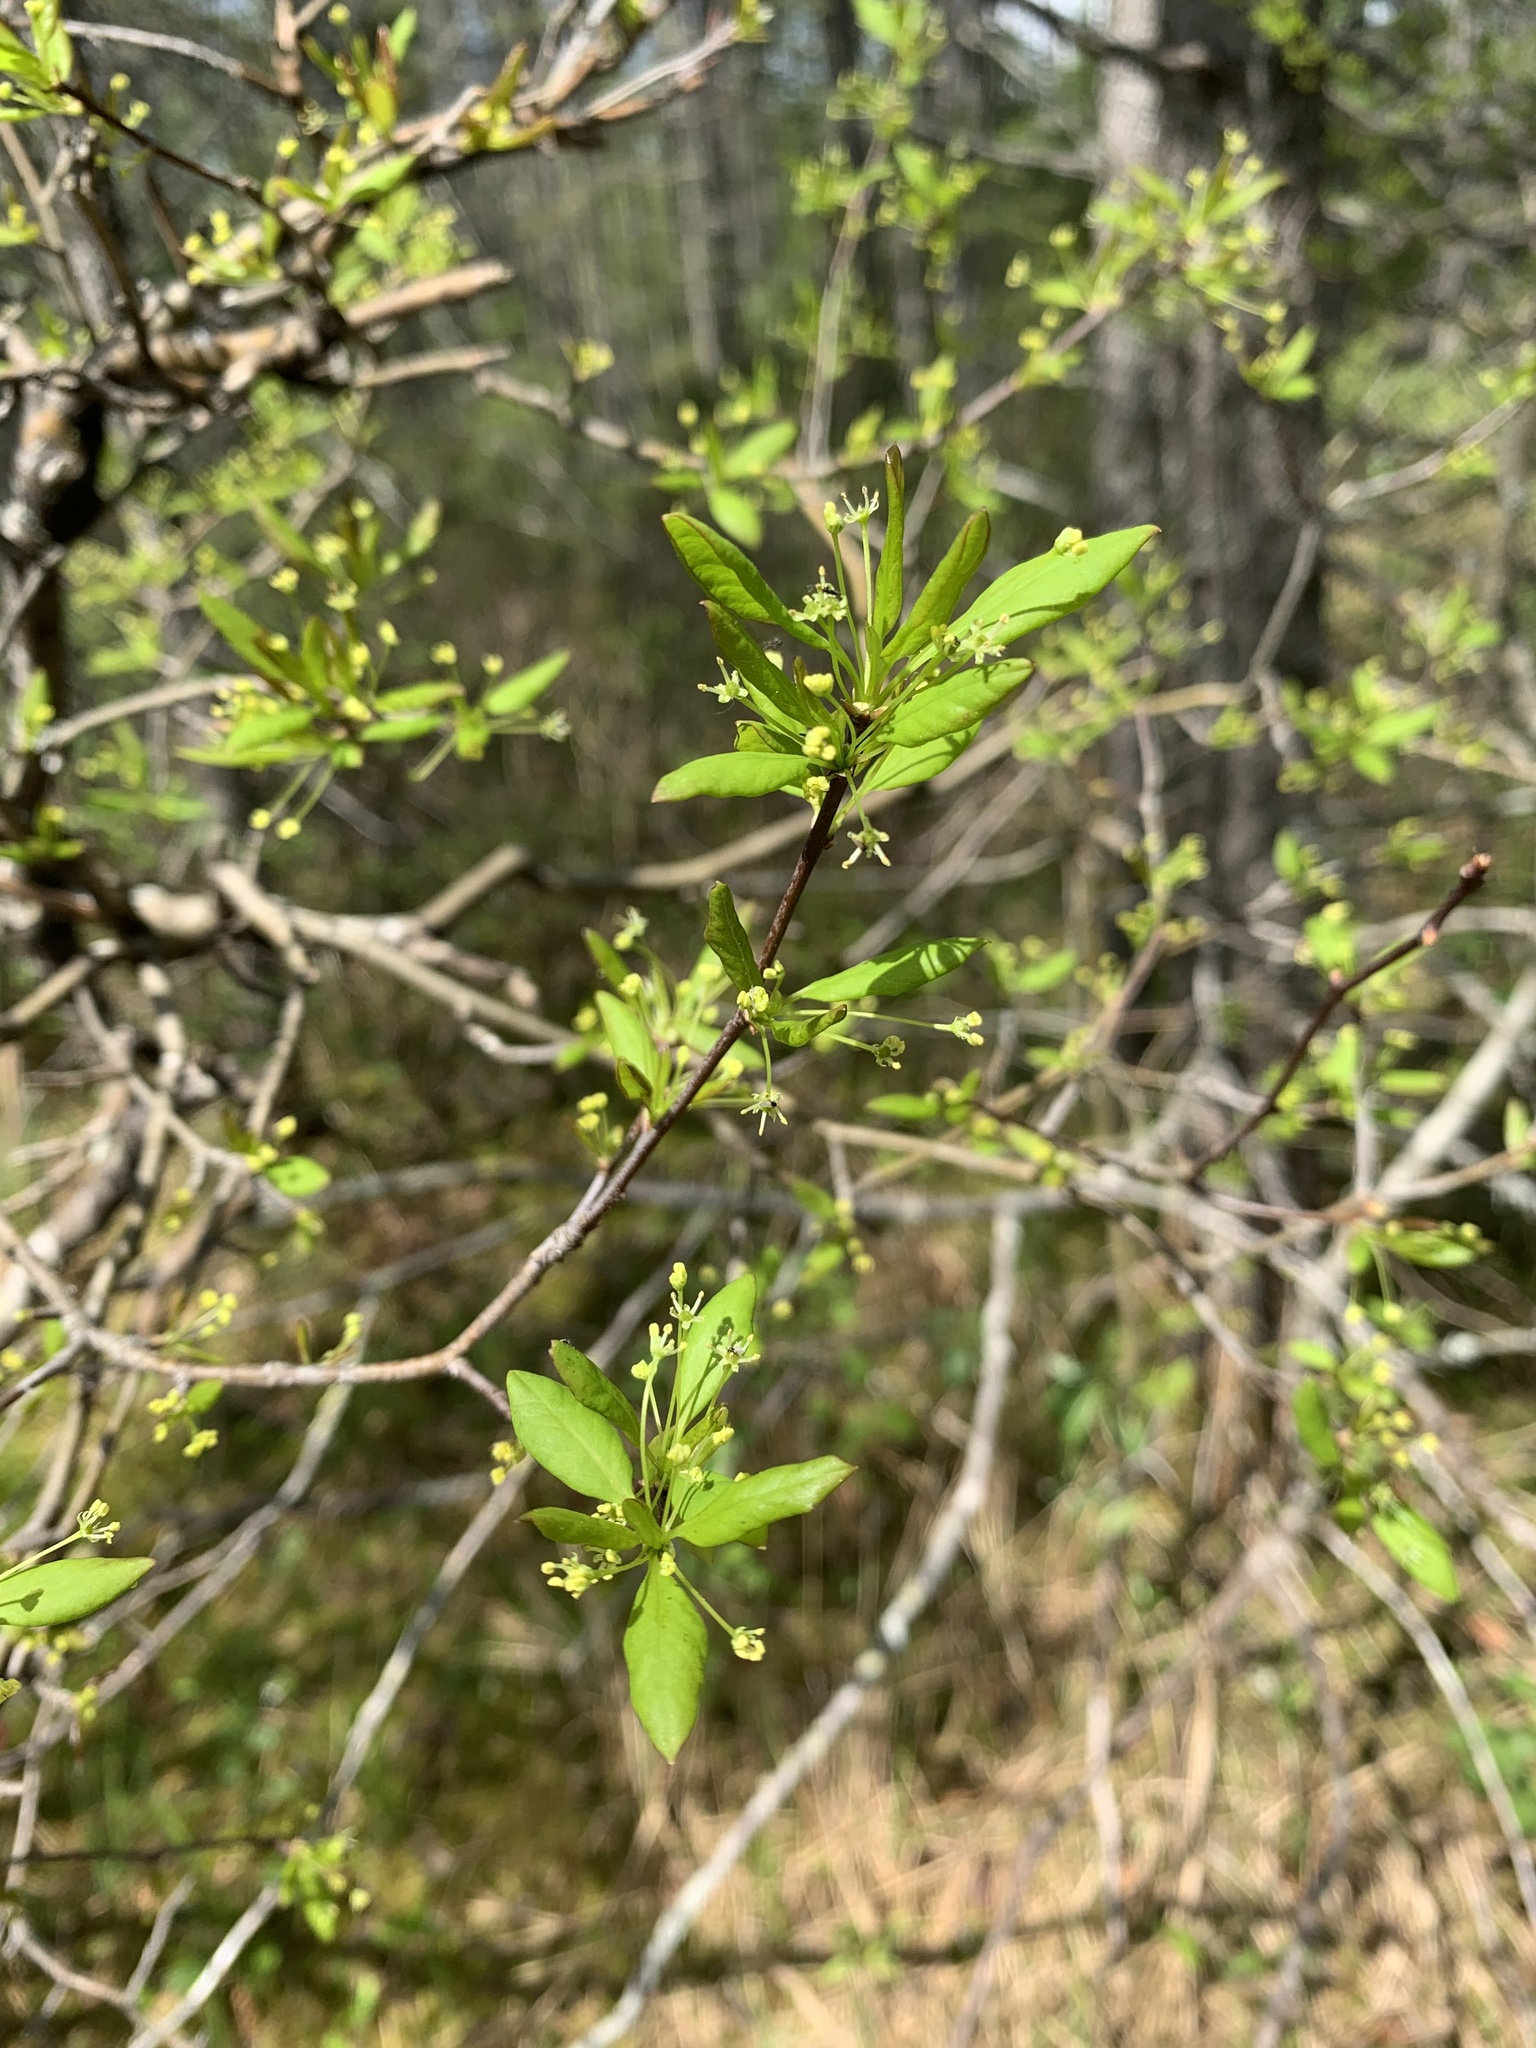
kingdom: Plantae
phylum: Tracheophyta
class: Magnoliopsida
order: Aquifoliales
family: Aquifoliaceae
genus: Ilex
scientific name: Ilex mucronata
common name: Catberry
